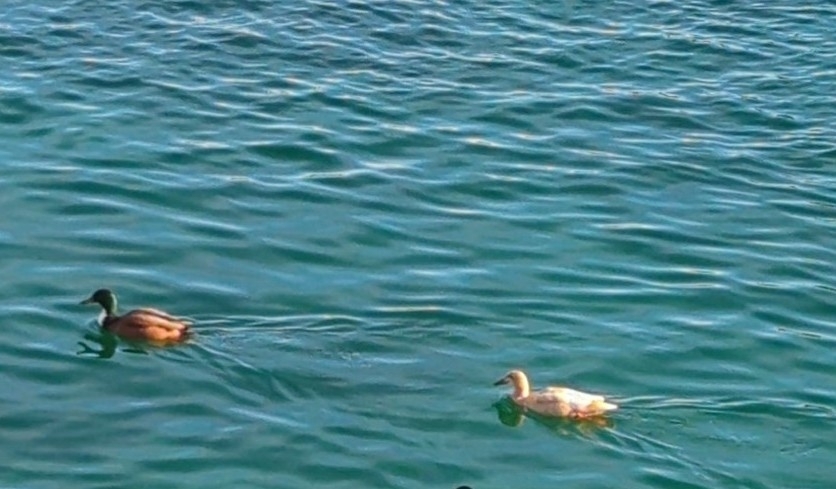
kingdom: Animalia
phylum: Chordata
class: Aves
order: Anseriformes
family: Anatidae
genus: Anas
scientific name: Anas platyrhynchos
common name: Mallard
